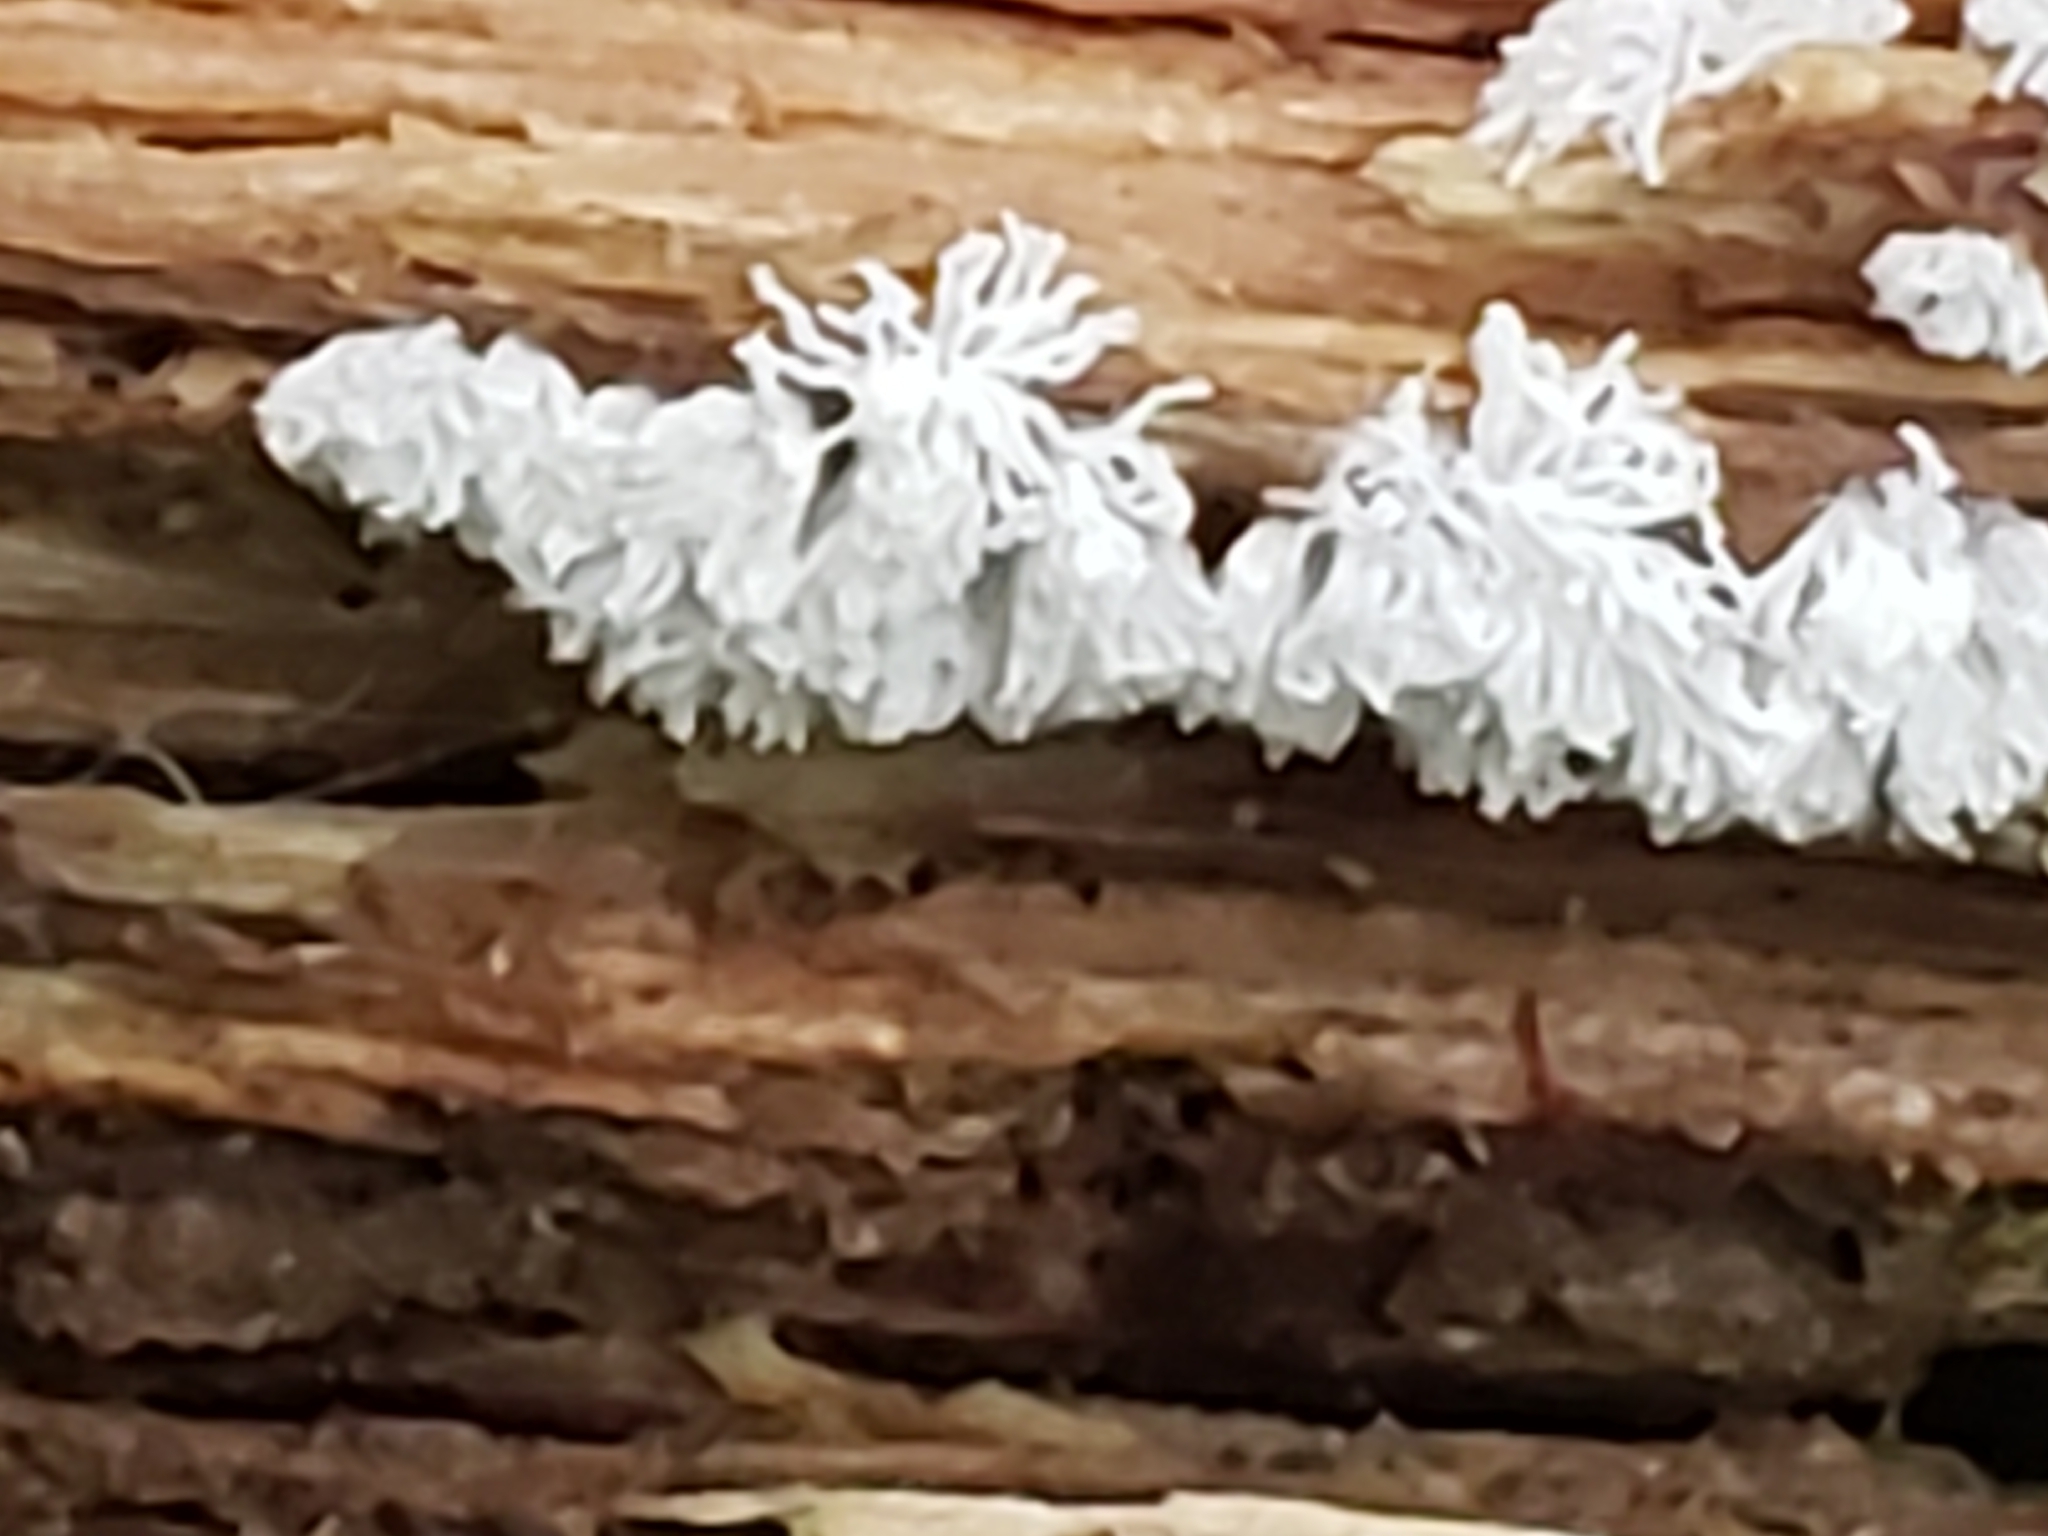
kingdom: Protozoa
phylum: Mycetozoa
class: Protosteliomycetes
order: Ceratiomyxales
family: Ceratiomyxaceae
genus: Ceratiomyxa
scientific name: Ceratiomyxa fruticulosa
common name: Honeycomb coral slime mold
